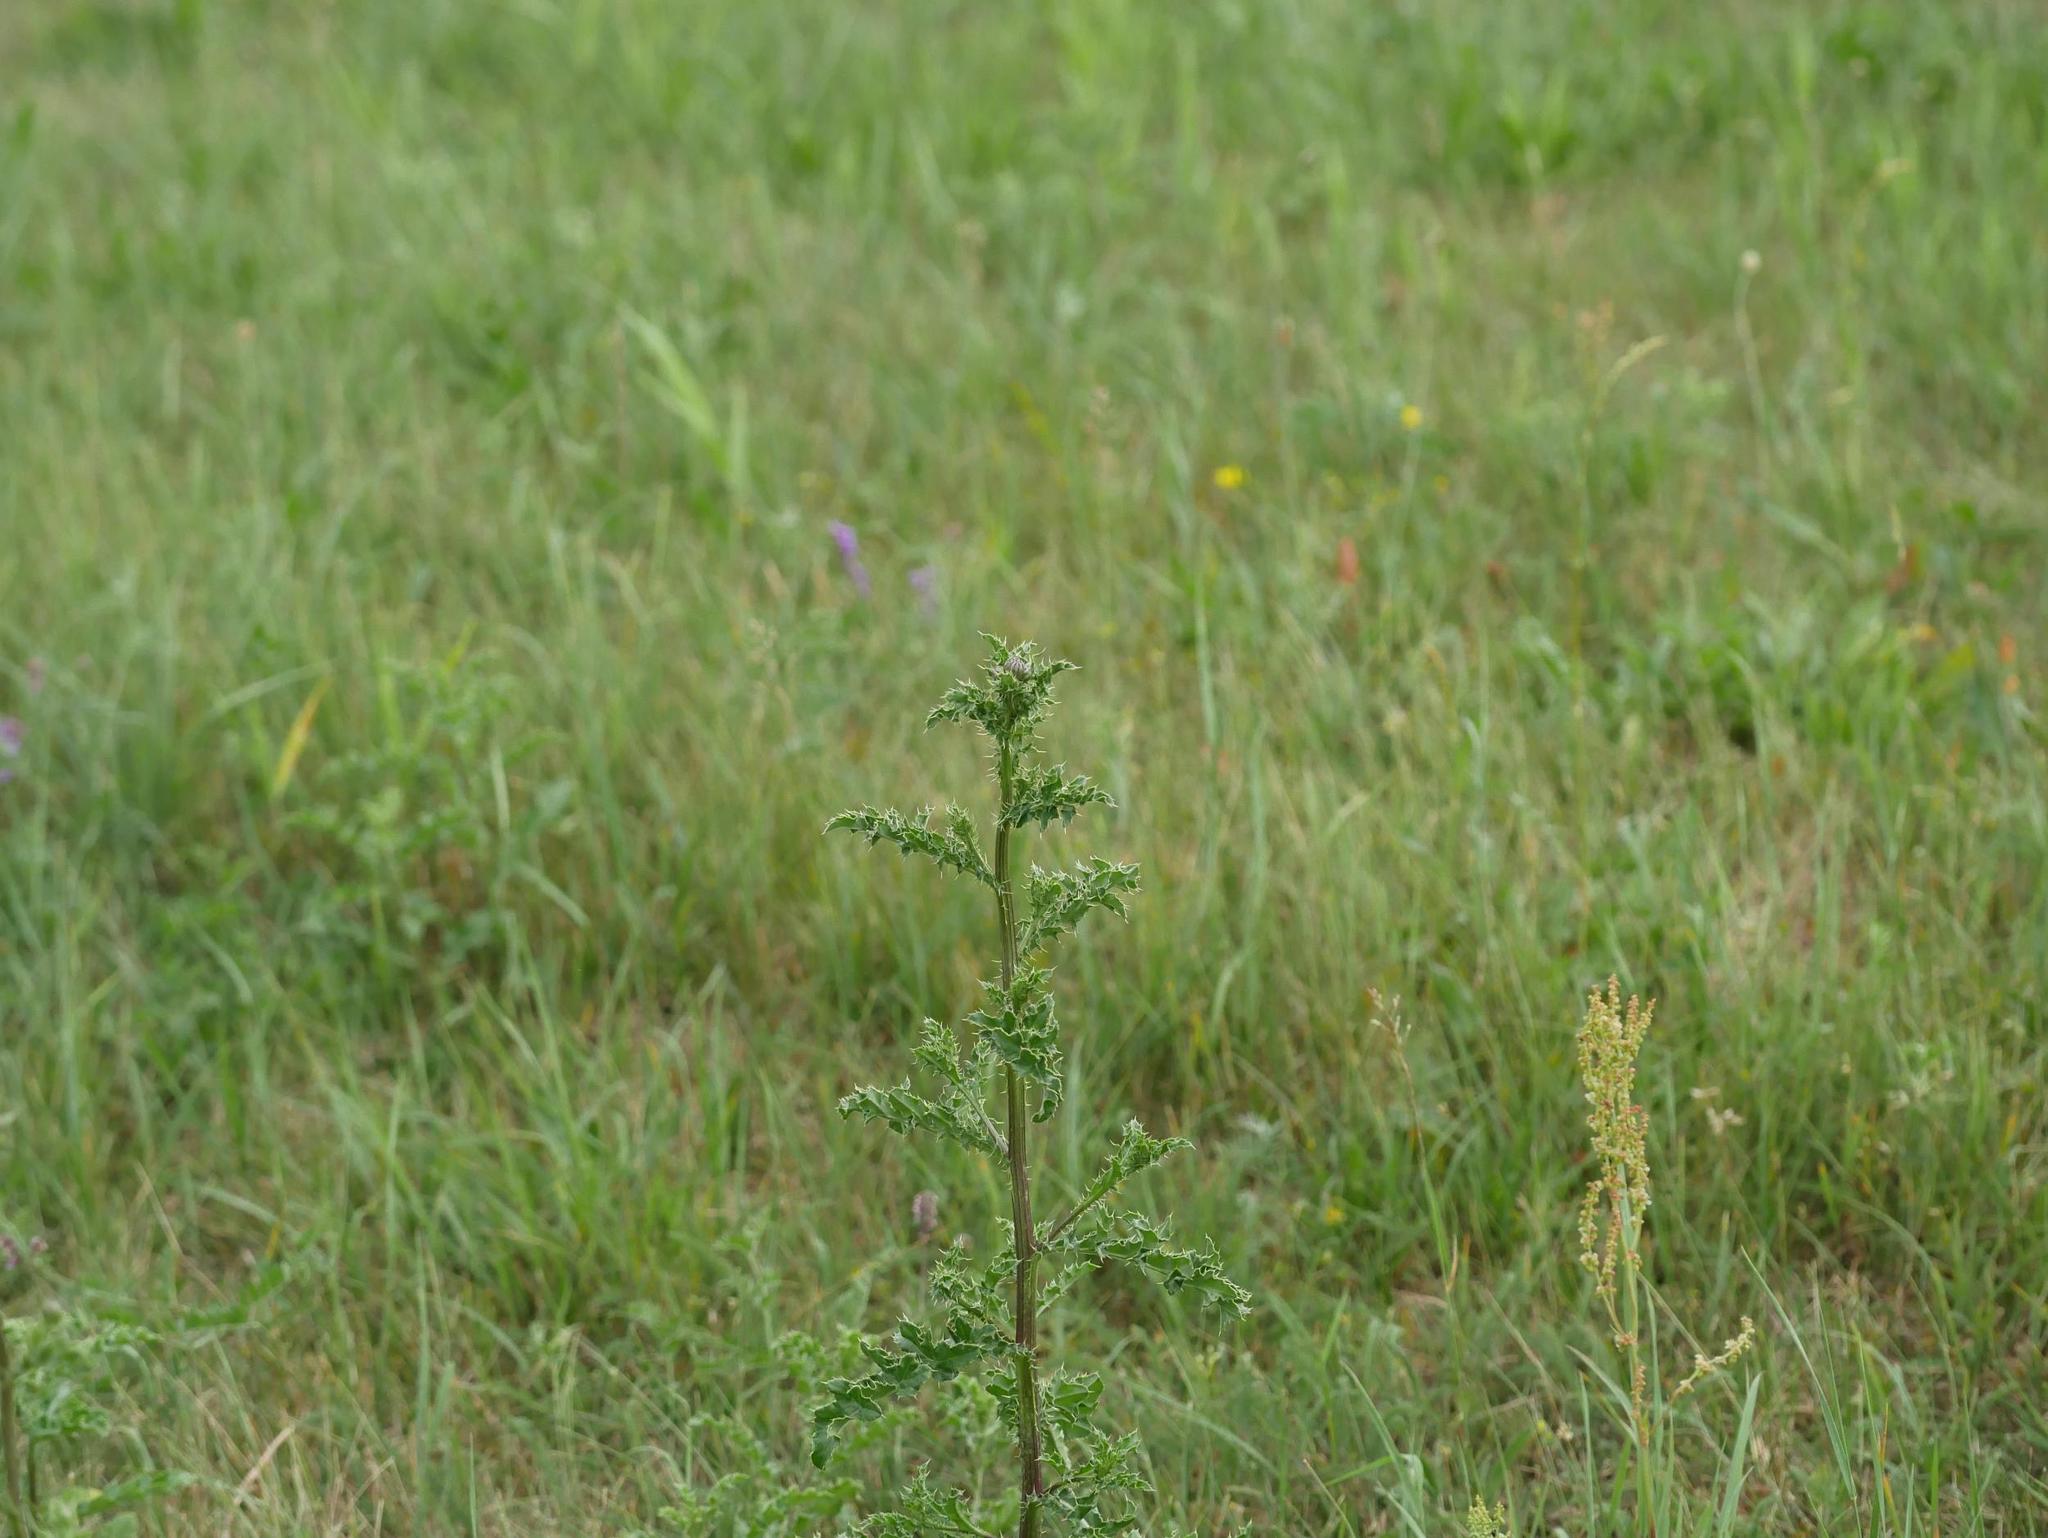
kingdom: Plantae
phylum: Tracheophyta
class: Magnoliopsida
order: Asterales
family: Asteraceae
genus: Cirsium
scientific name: Cirsium arvense
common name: Creeping thistle
